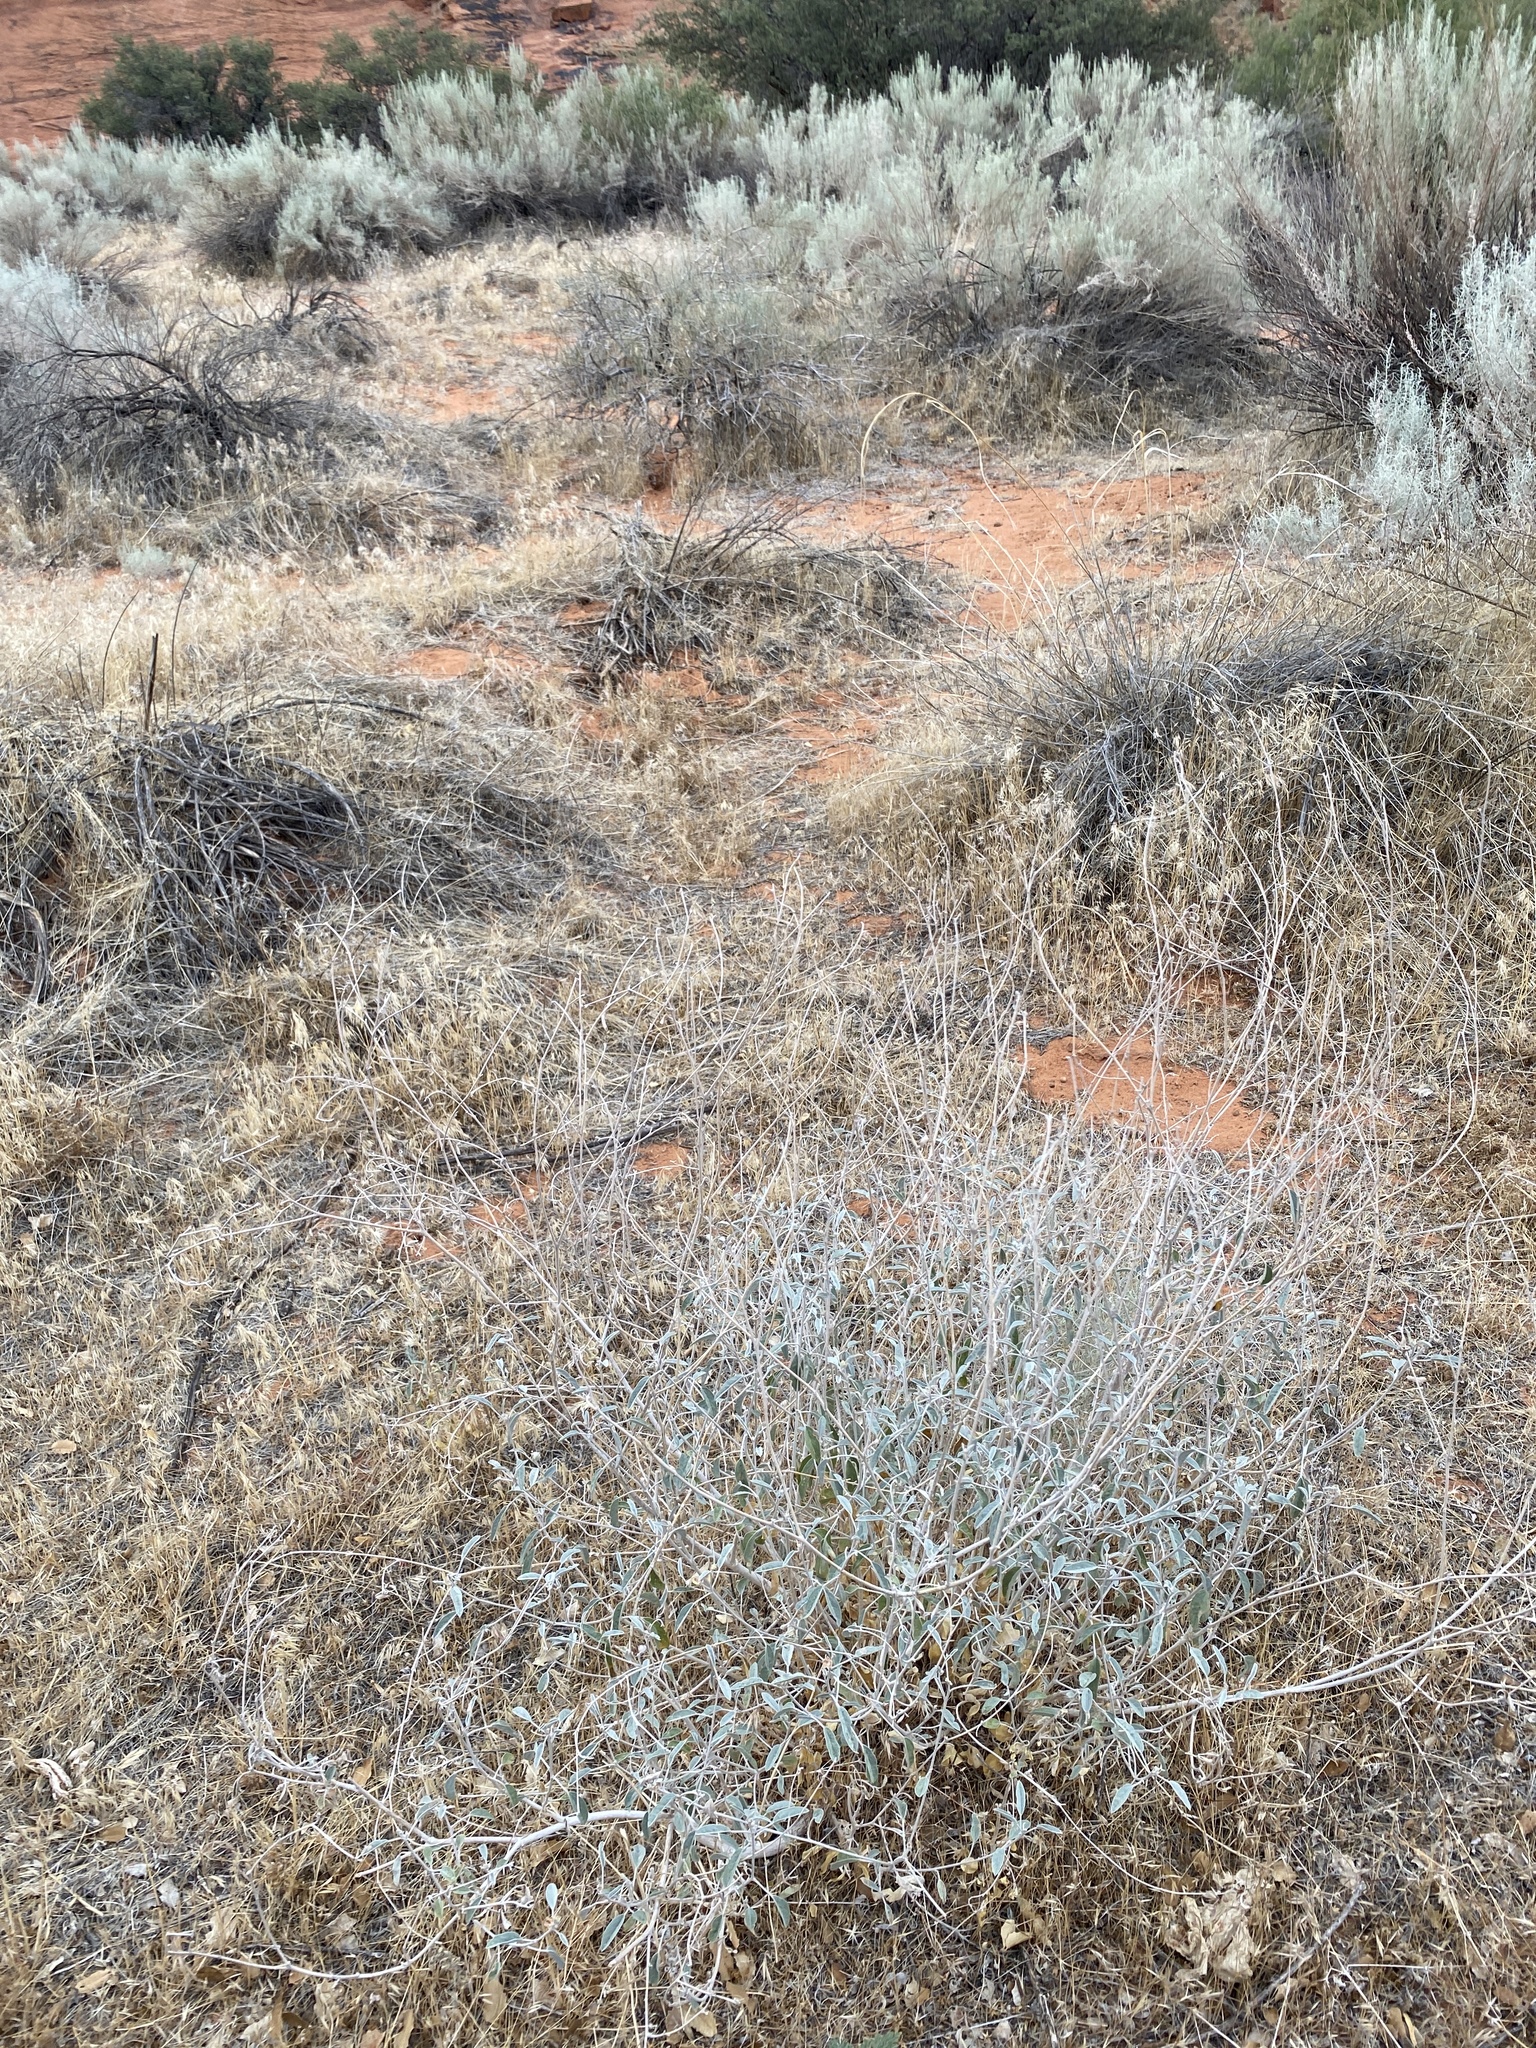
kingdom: Plantae
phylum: Tracheophyta
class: Magnoliopsida
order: Malpighiales
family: Euphorbiaceae
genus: Croton
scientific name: Croton californicus
